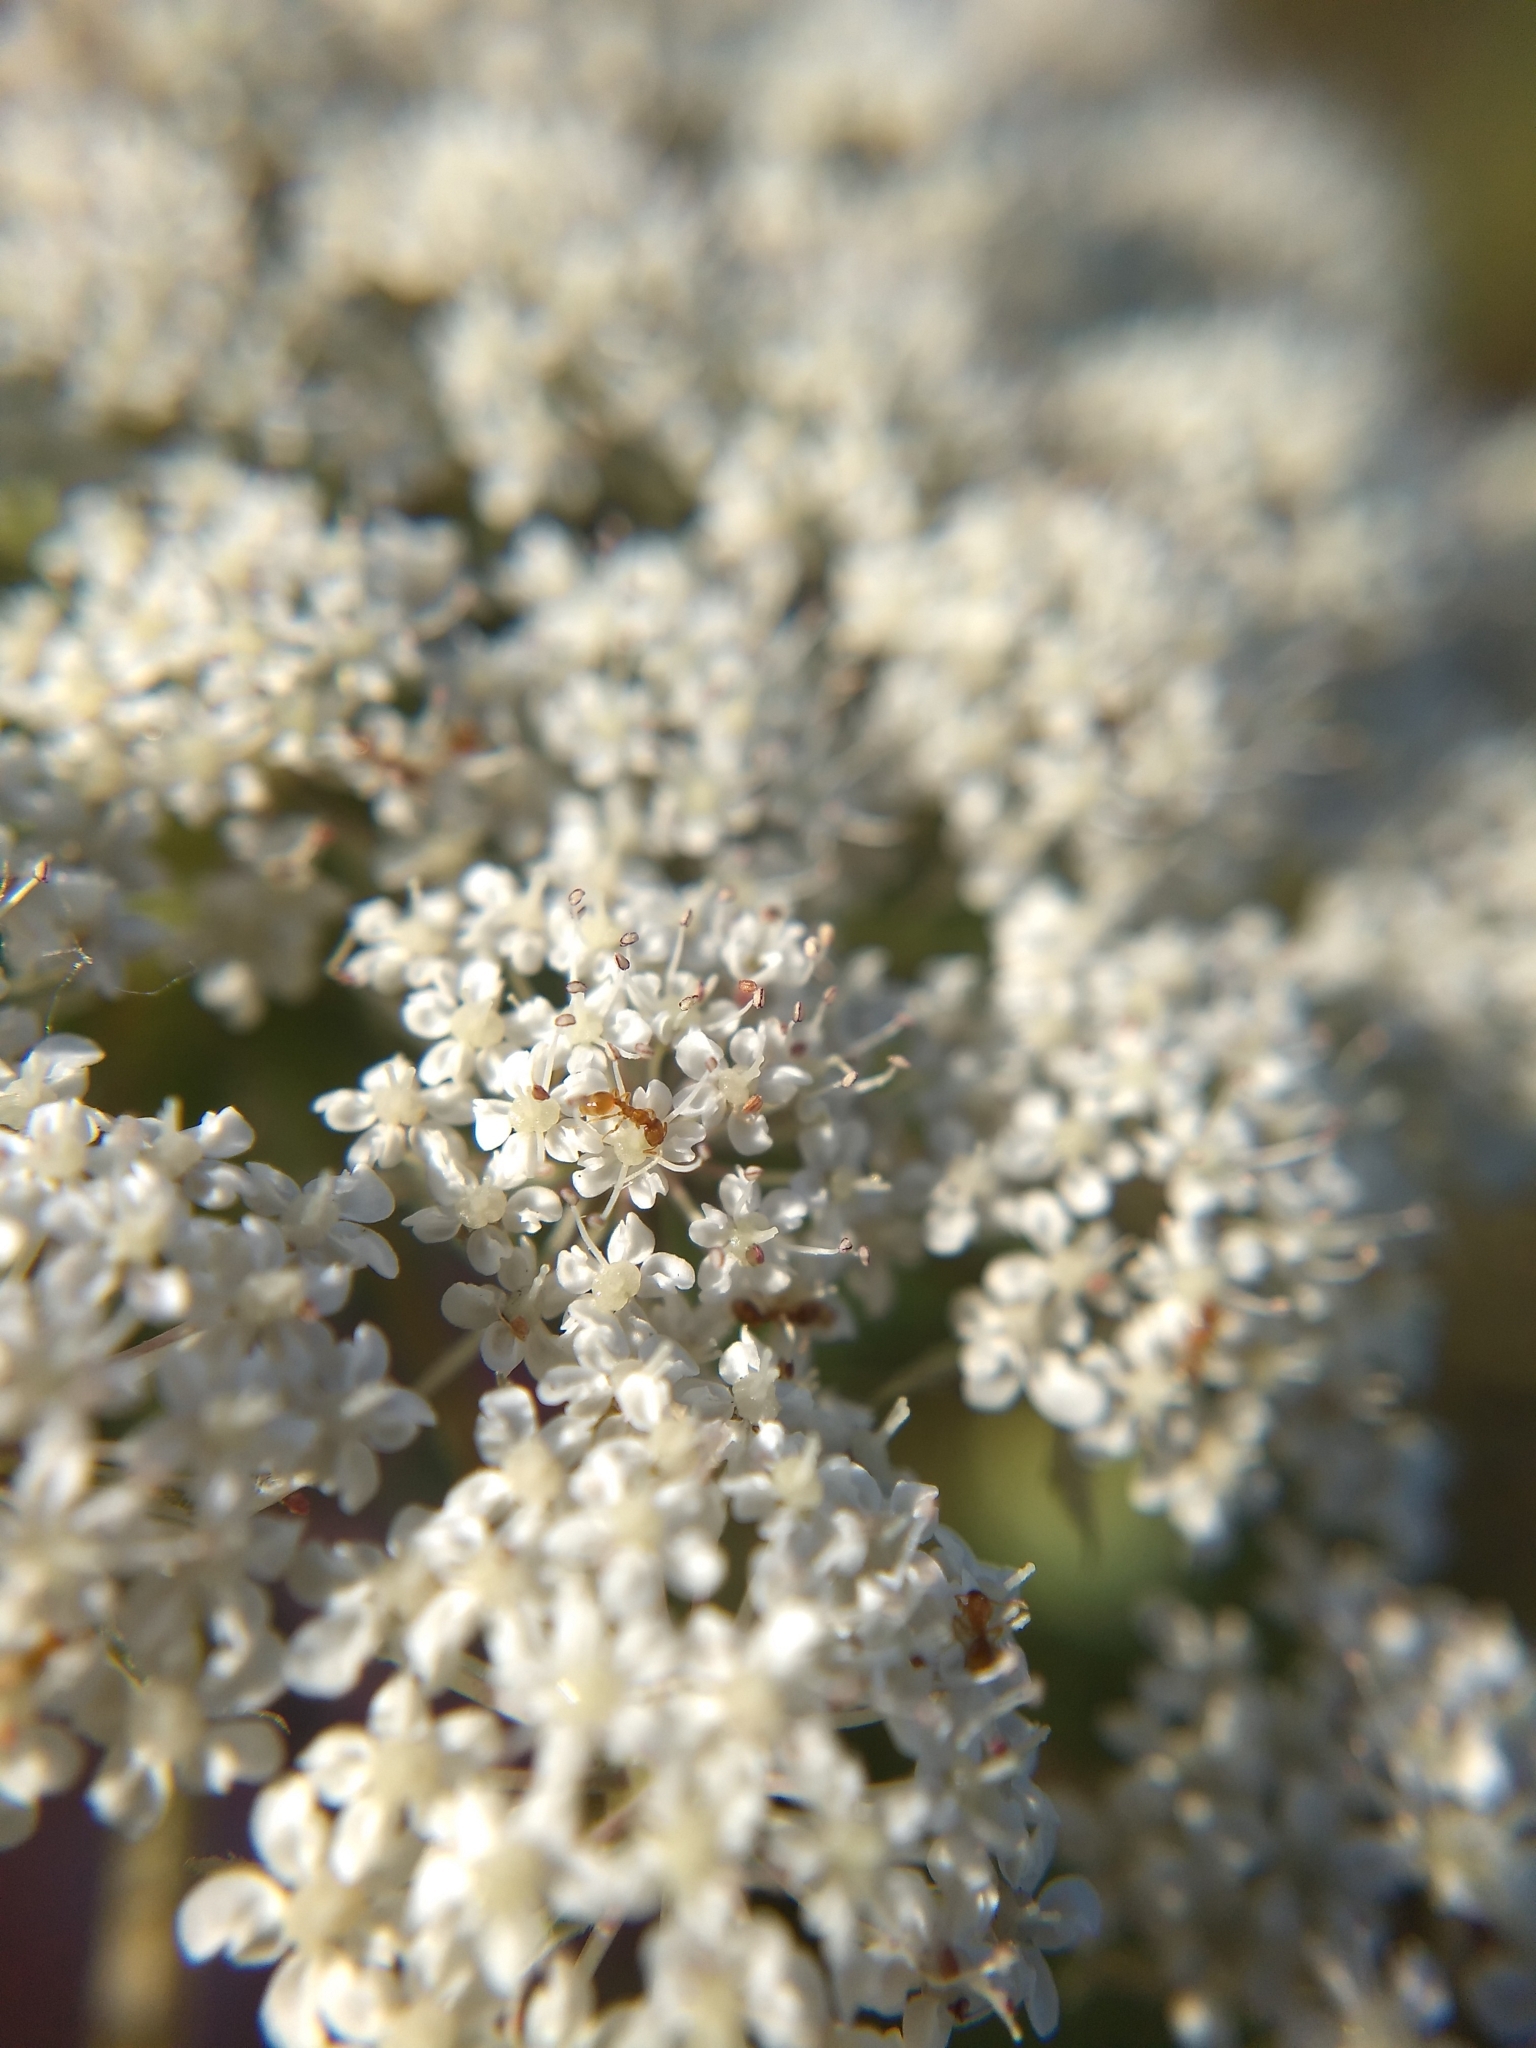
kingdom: Animalia
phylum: Arthropoda
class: Insecta
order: Hymenoptera
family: Formicidae
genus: Solenopsis
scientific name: Solenopsis molesta
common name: Thief ant
